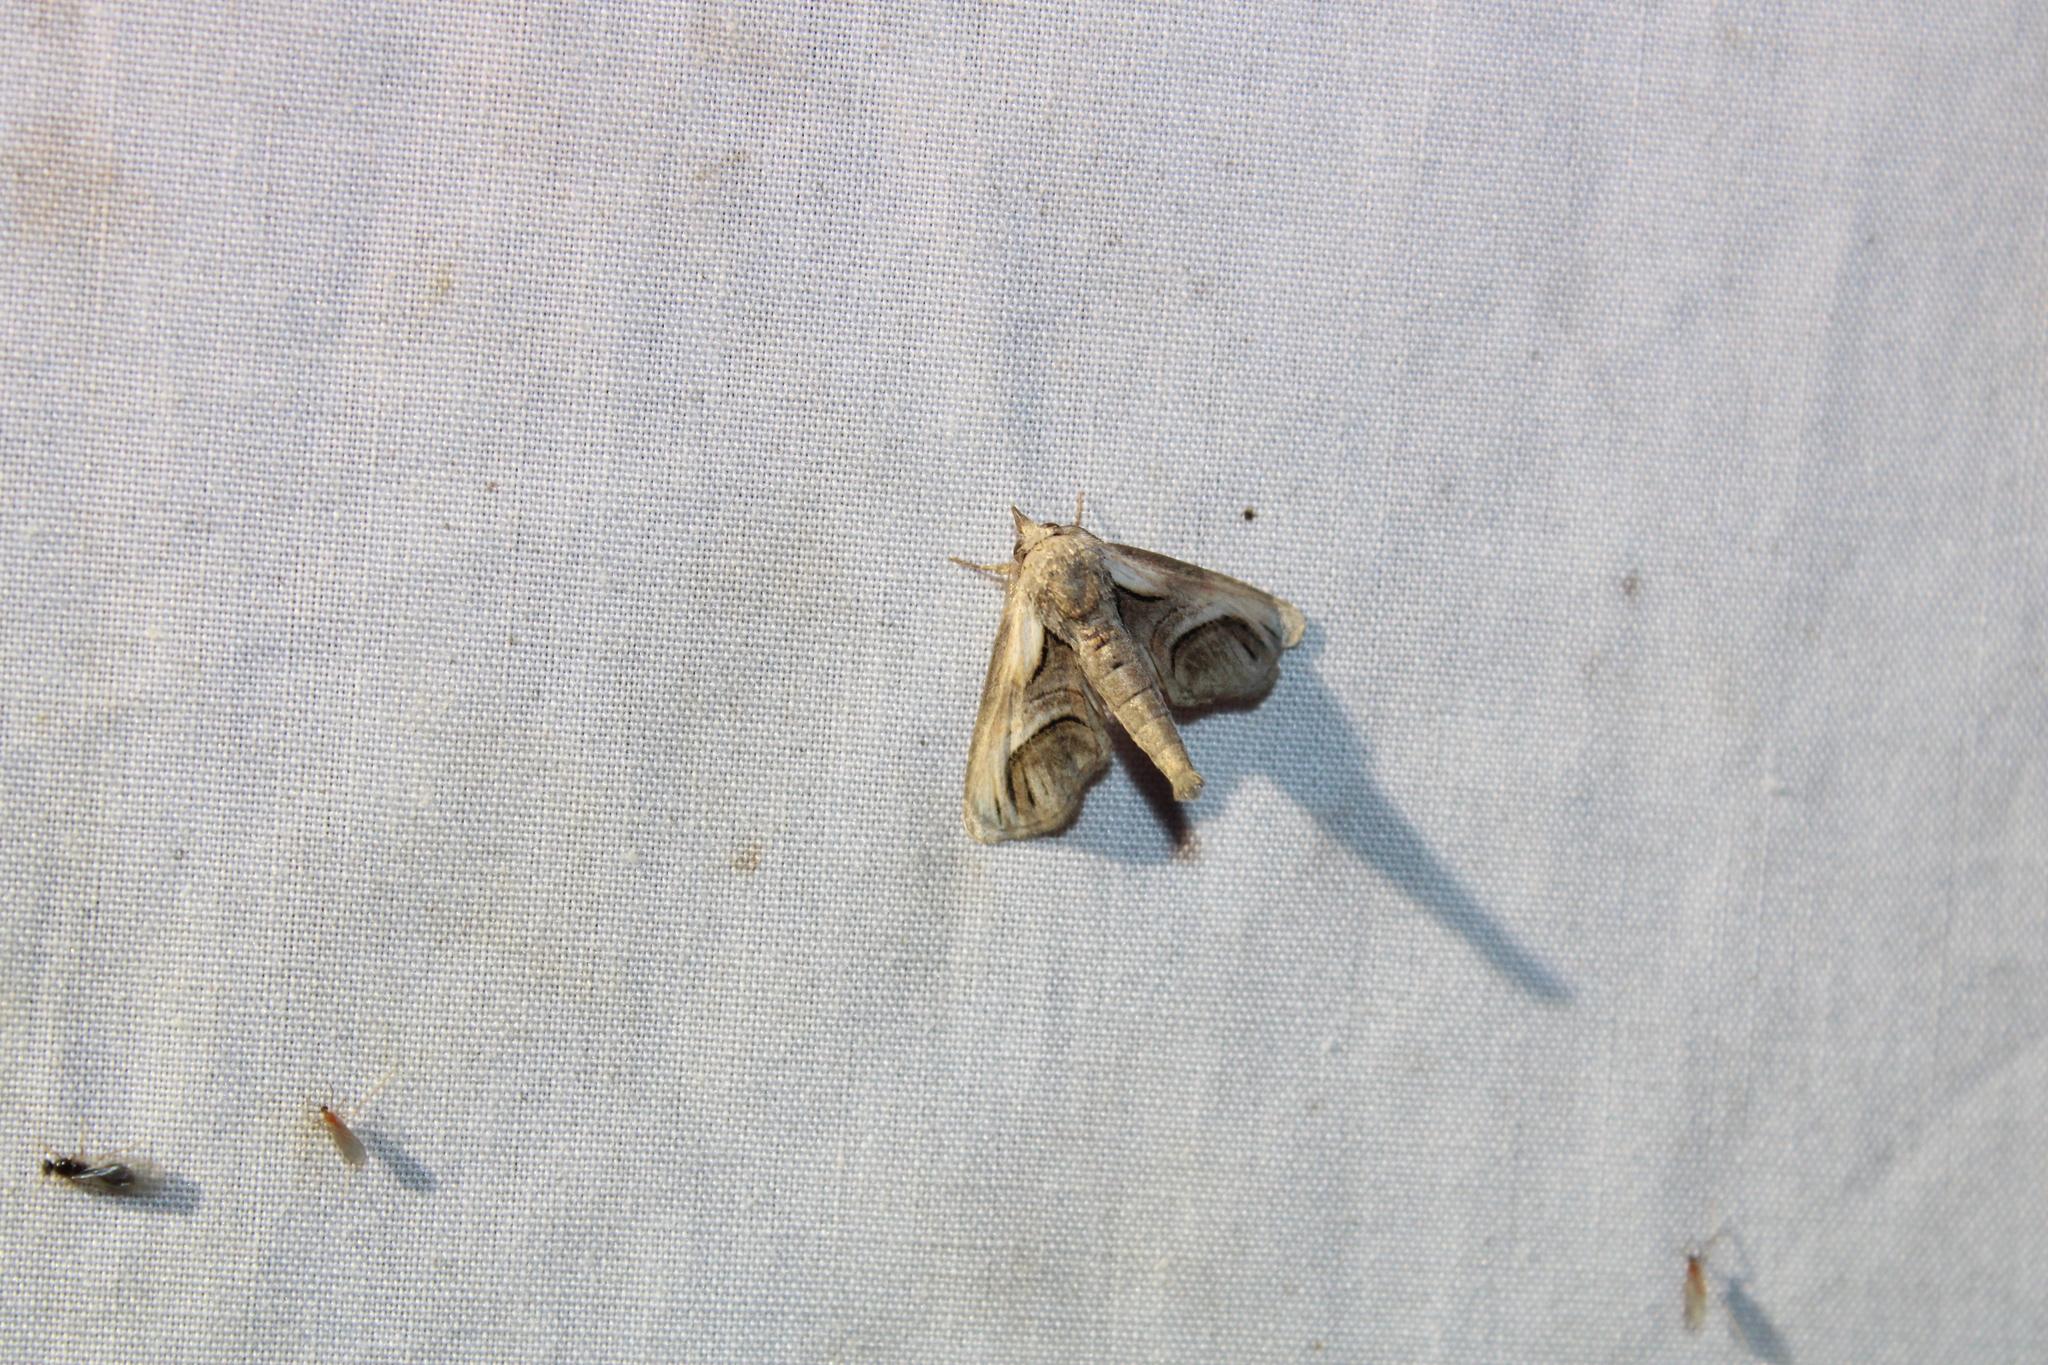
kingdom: Animalia
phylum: Arthropoda
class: Insecta
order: Lepidoptera
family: Euteliidae
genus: Paectes
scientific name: Paectes oculatrix
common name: Eyed paectes moth
